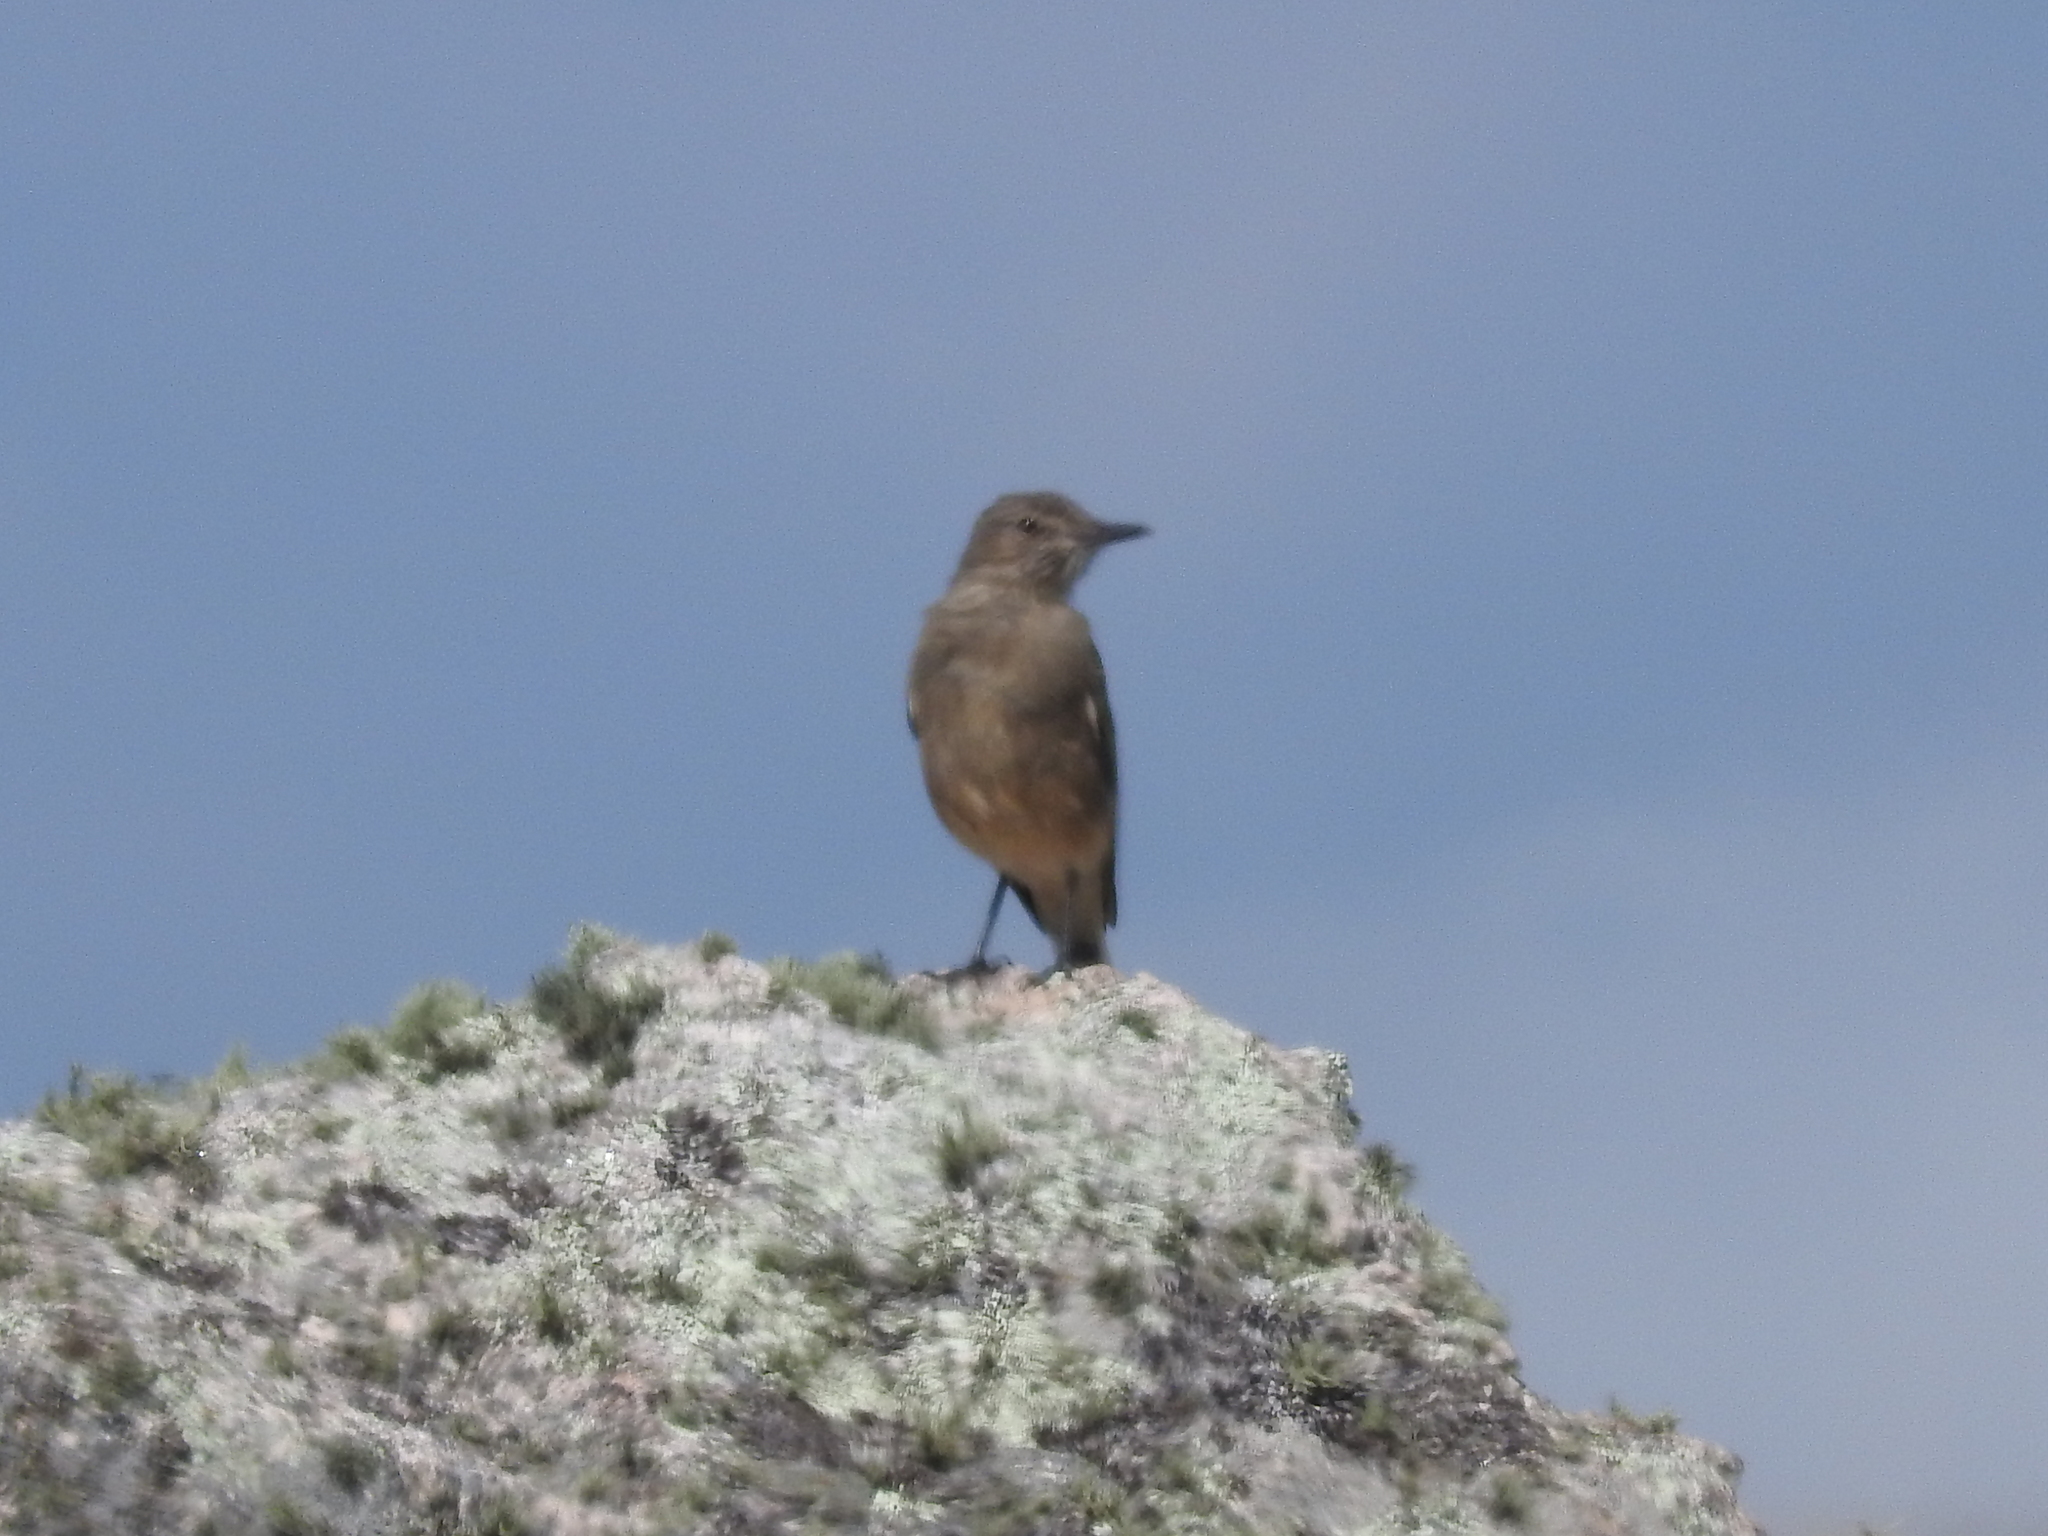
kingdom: Animalia
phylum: Chordata
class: Aves
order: Passeriformes
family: Tyrannidae
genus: Agriornis
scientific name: Agriornis montanus
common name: Black-billed shrike-tyrant
